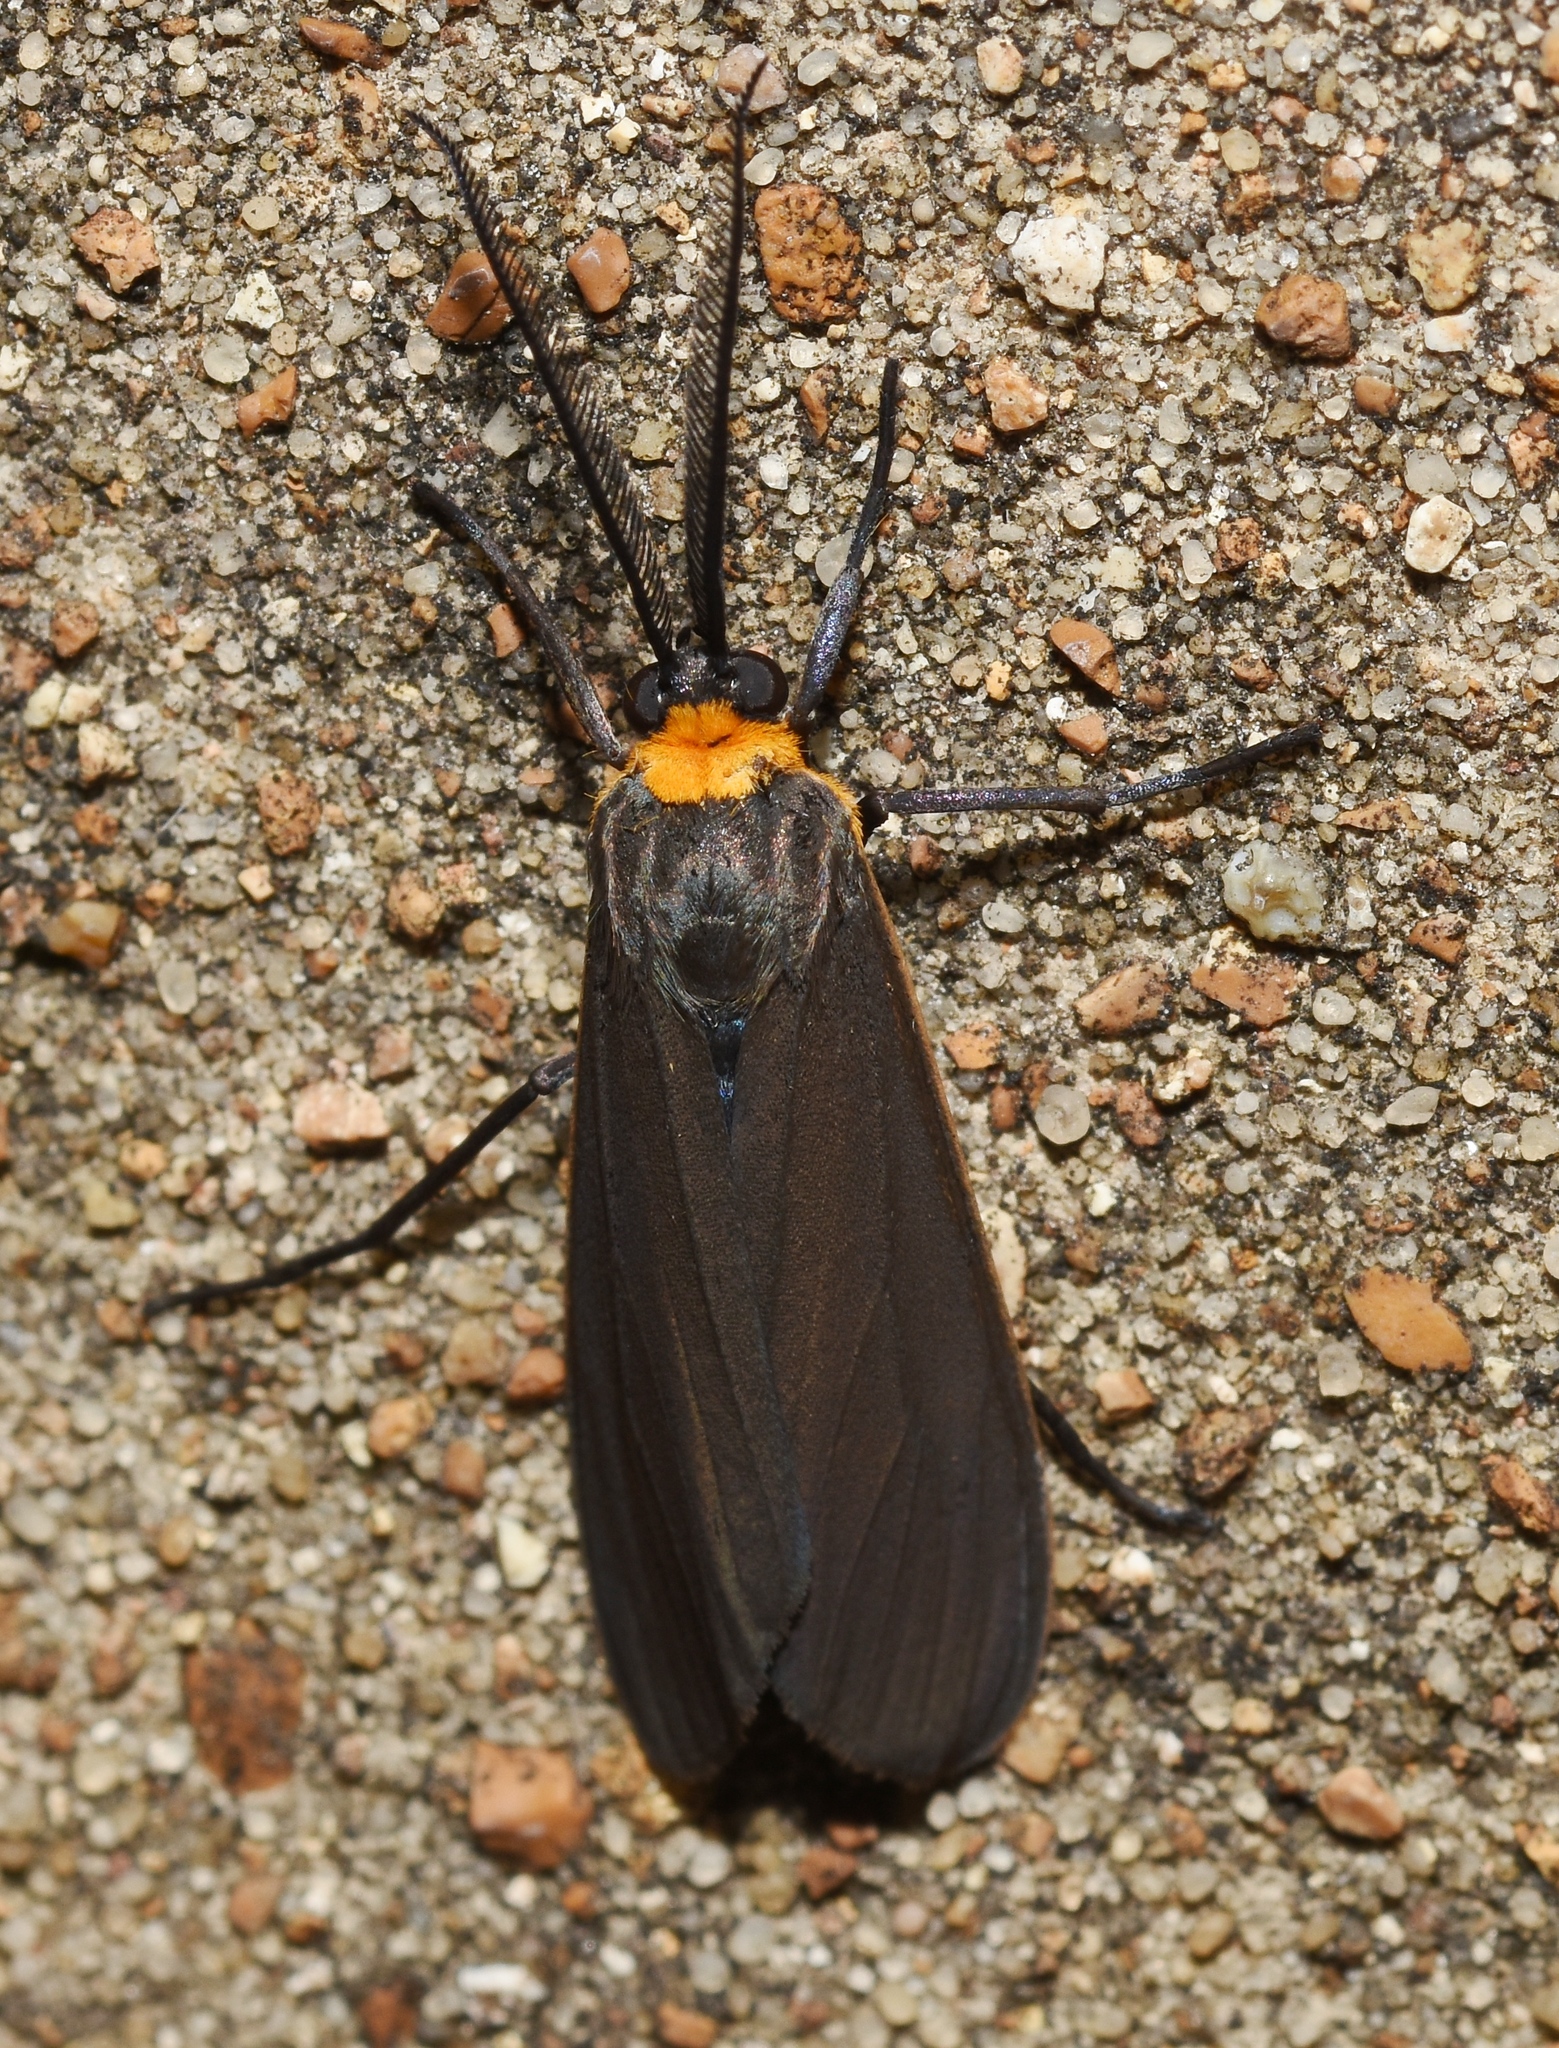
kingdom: Animalia
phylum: Arthropoda
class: Insecta
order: Lepidoptera
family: Erebidae
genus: Cisseps
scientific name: Cisseps fulvicollis
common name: Yellow-collared scape moth
